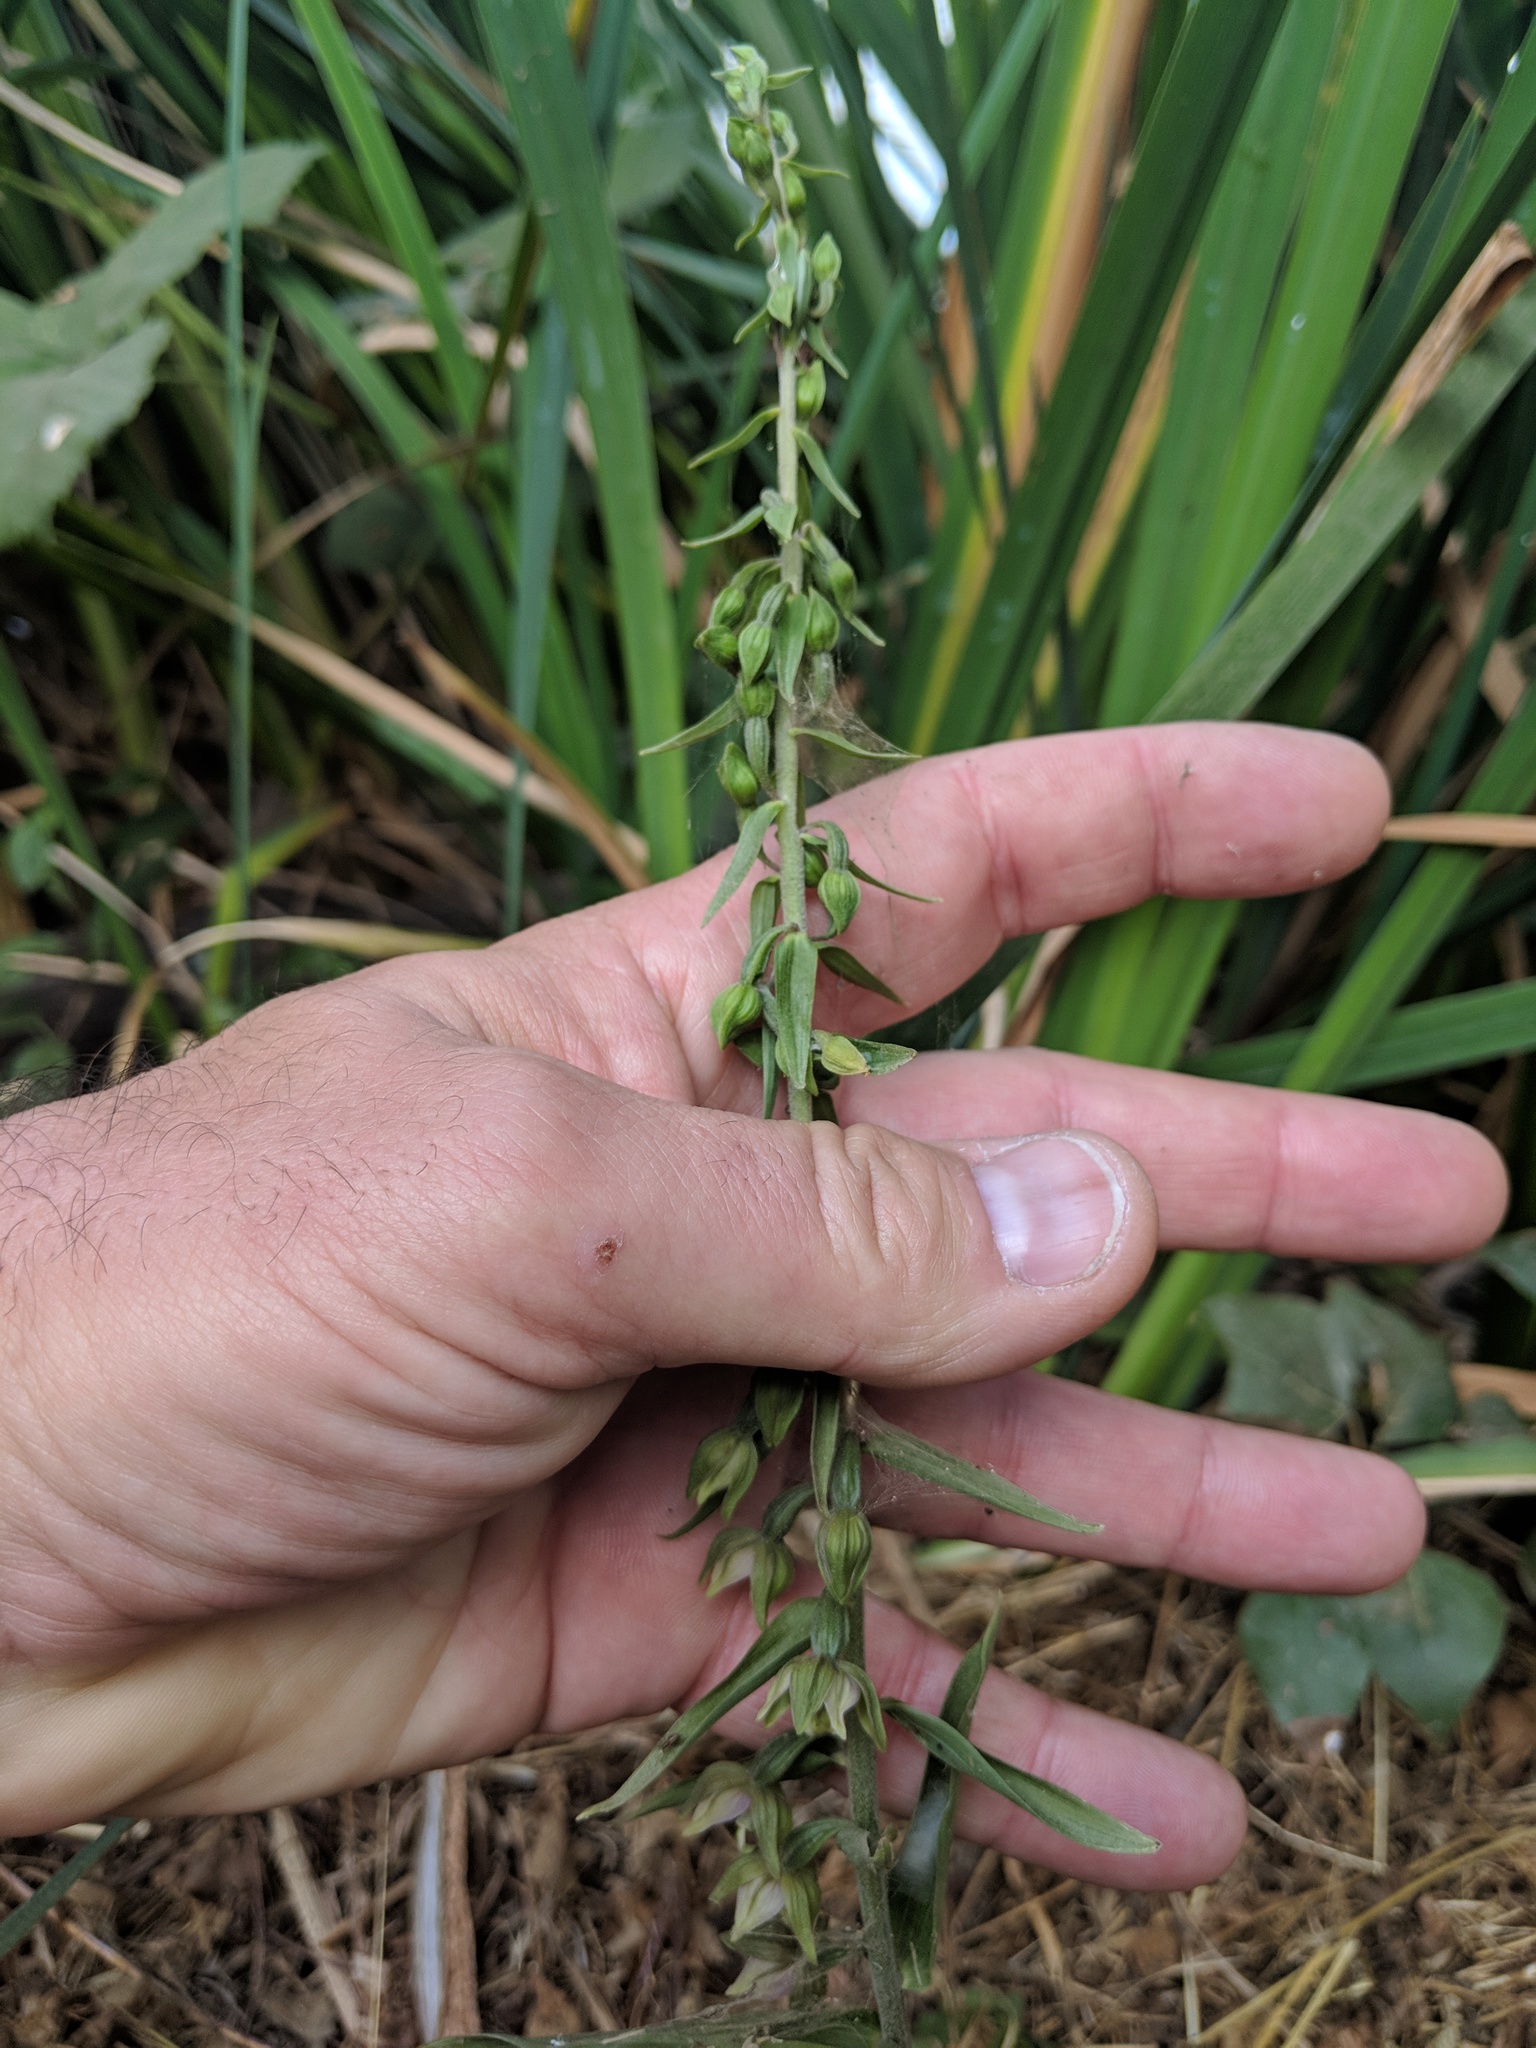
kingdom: Plantae
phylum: Tracheophyta
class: Liliopsida
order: Asparagales
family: Orchidaceae
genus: Epipactis
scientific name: Epipactis helleborine
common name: Broad-leaved helleborine
